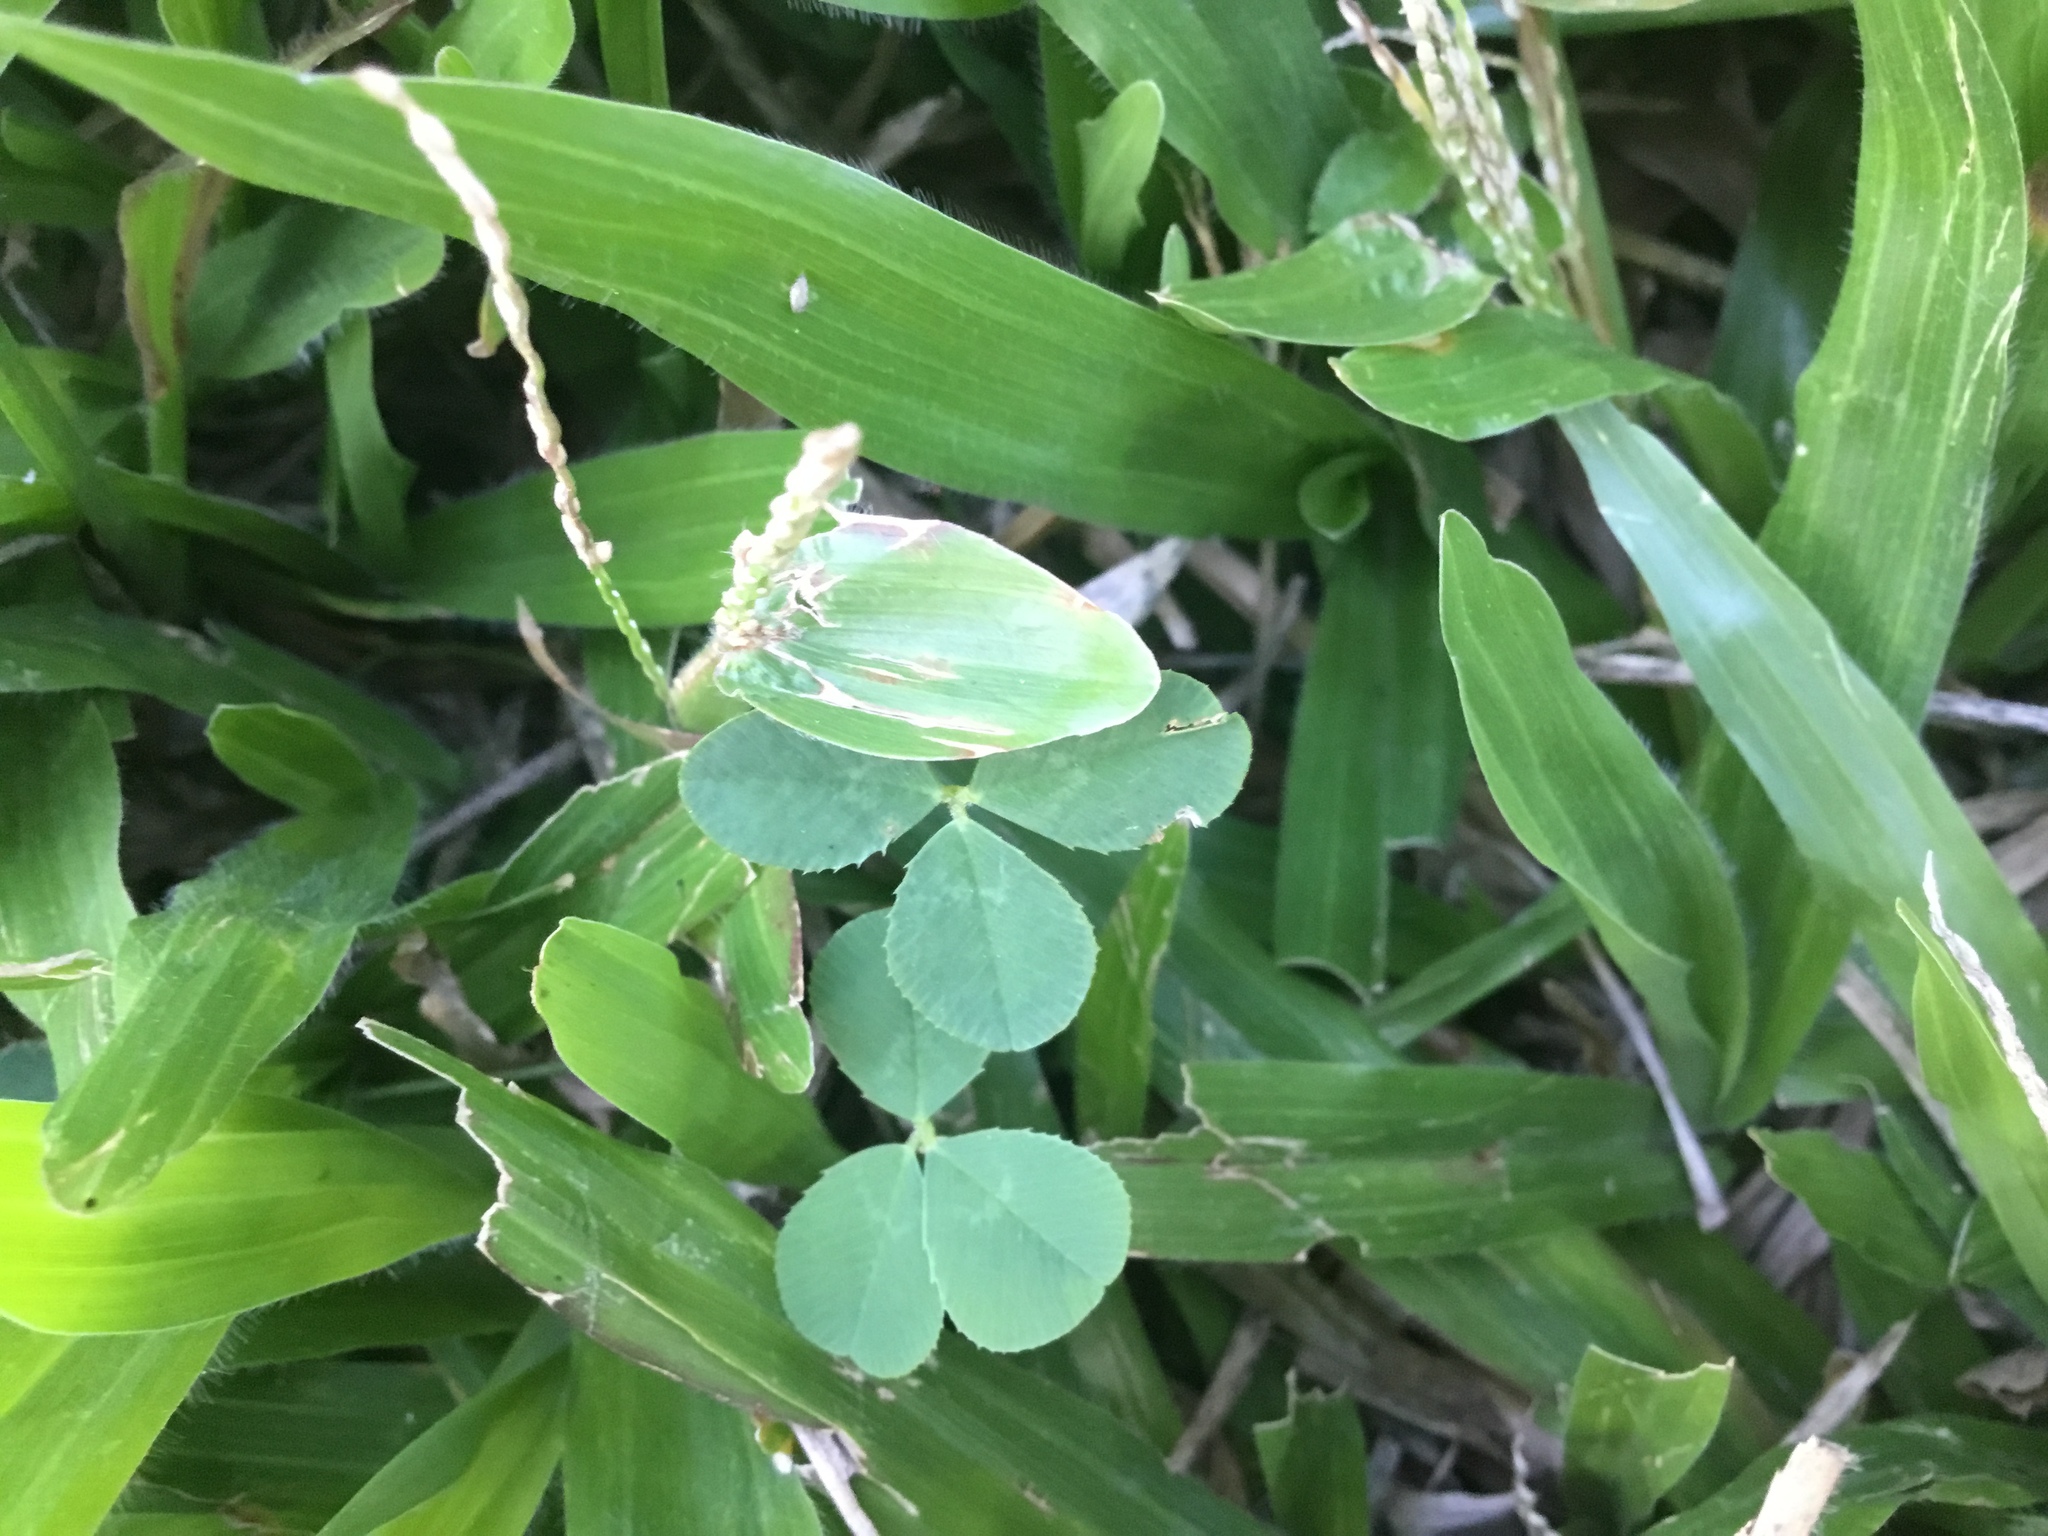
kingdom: Plantae
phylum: Tracheophyta
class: Magnoliopsida
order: Fabales
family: Fabaceae
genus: Trifolium
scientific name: Trifolium repens
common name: White clover
